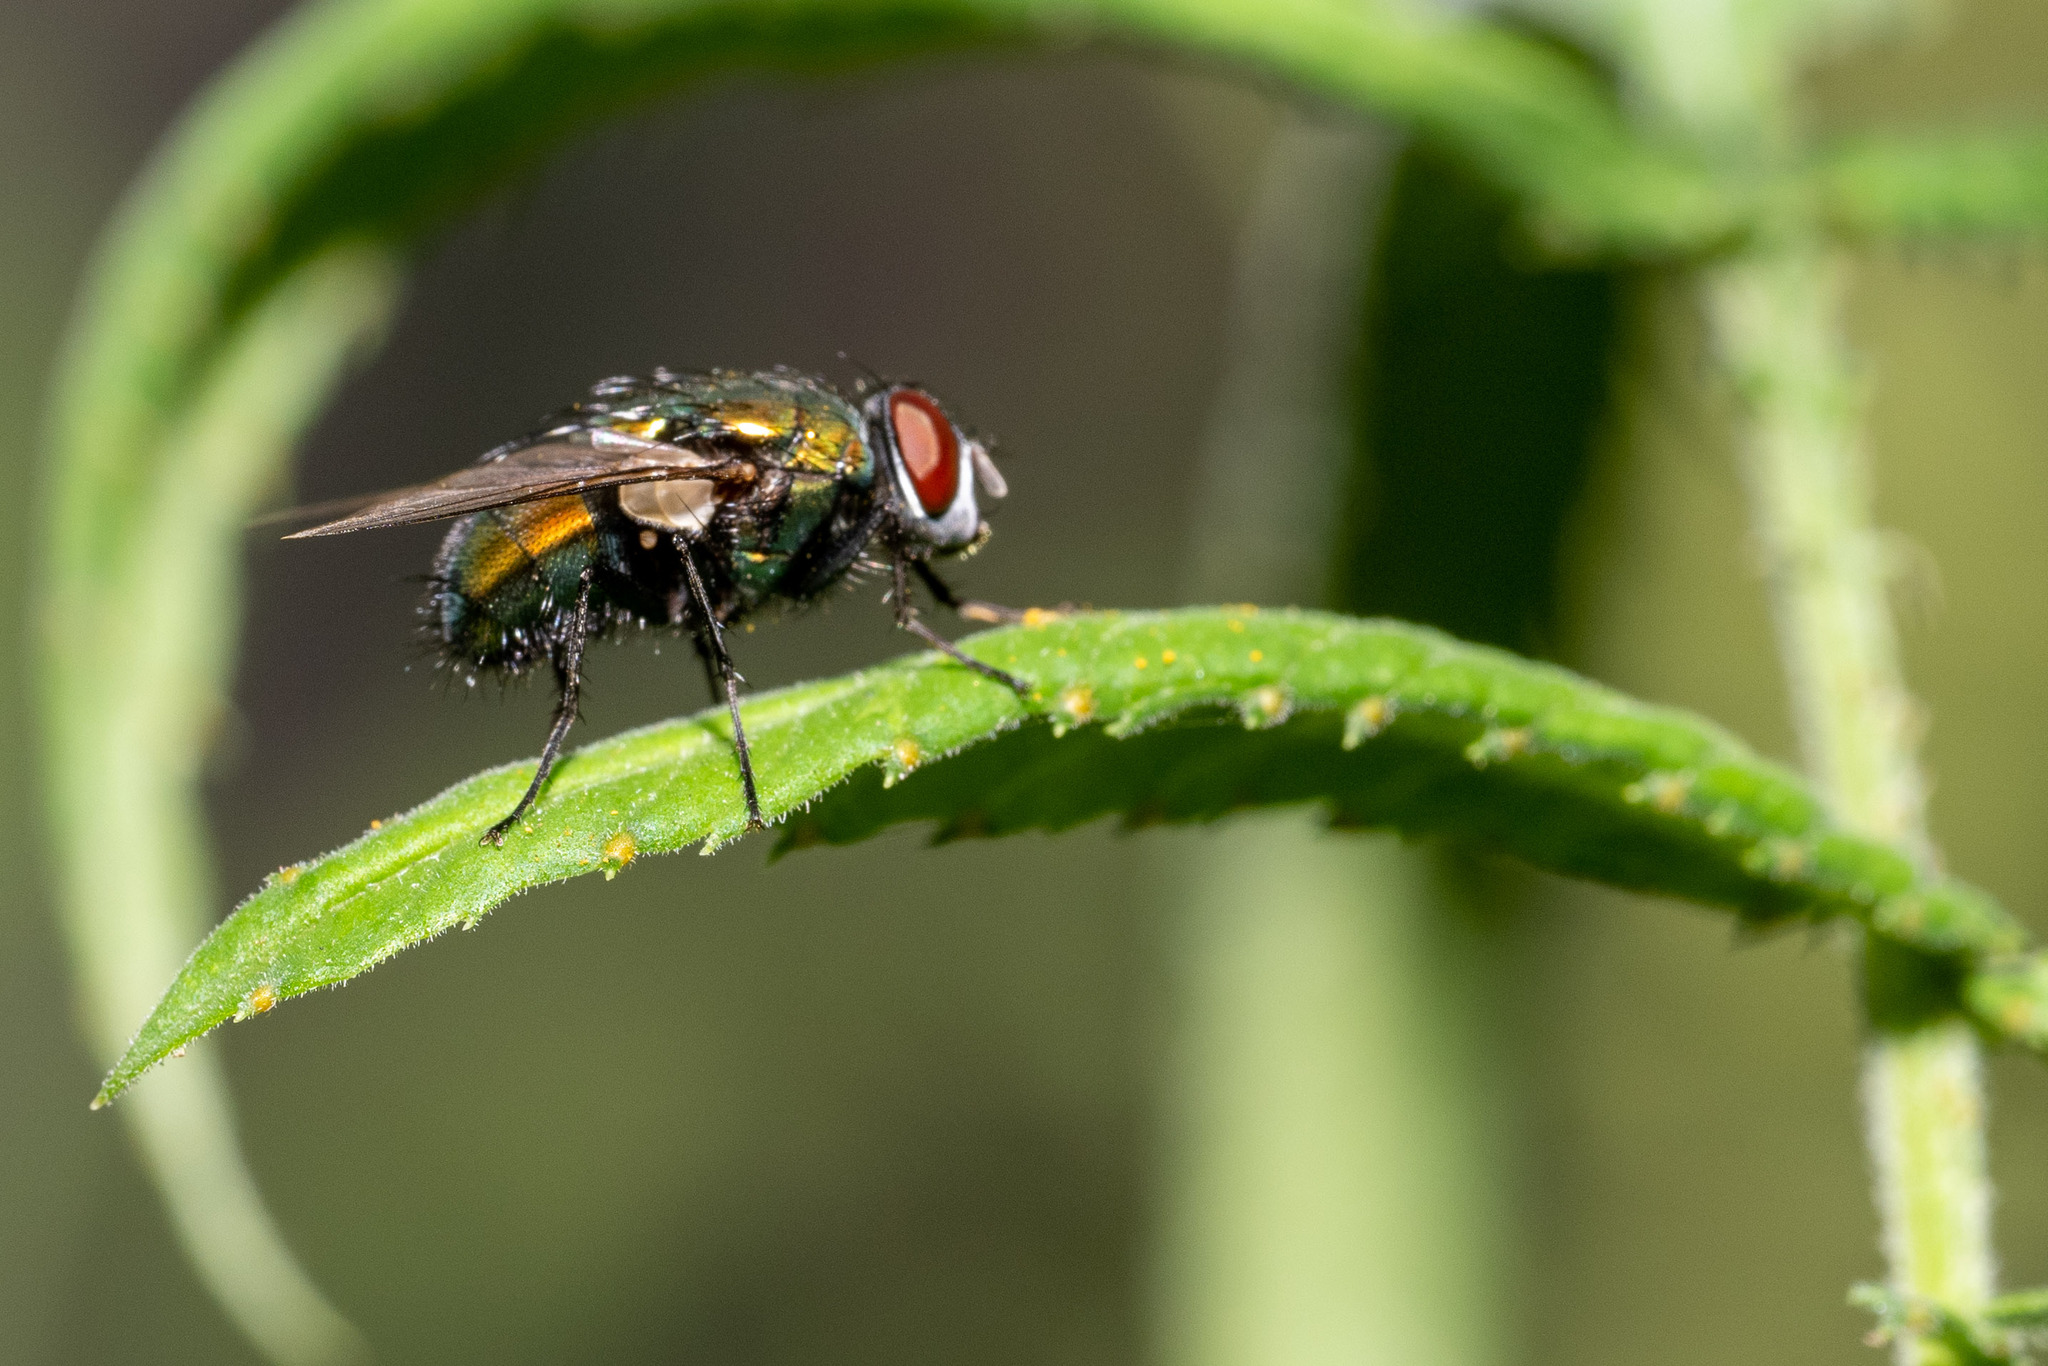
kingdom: Animalia
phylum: Arthropoda
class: Insecta
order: Diptera
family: Calliphoridae
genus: Lucilia
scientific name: Lucilia sericata
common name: Blow fly
